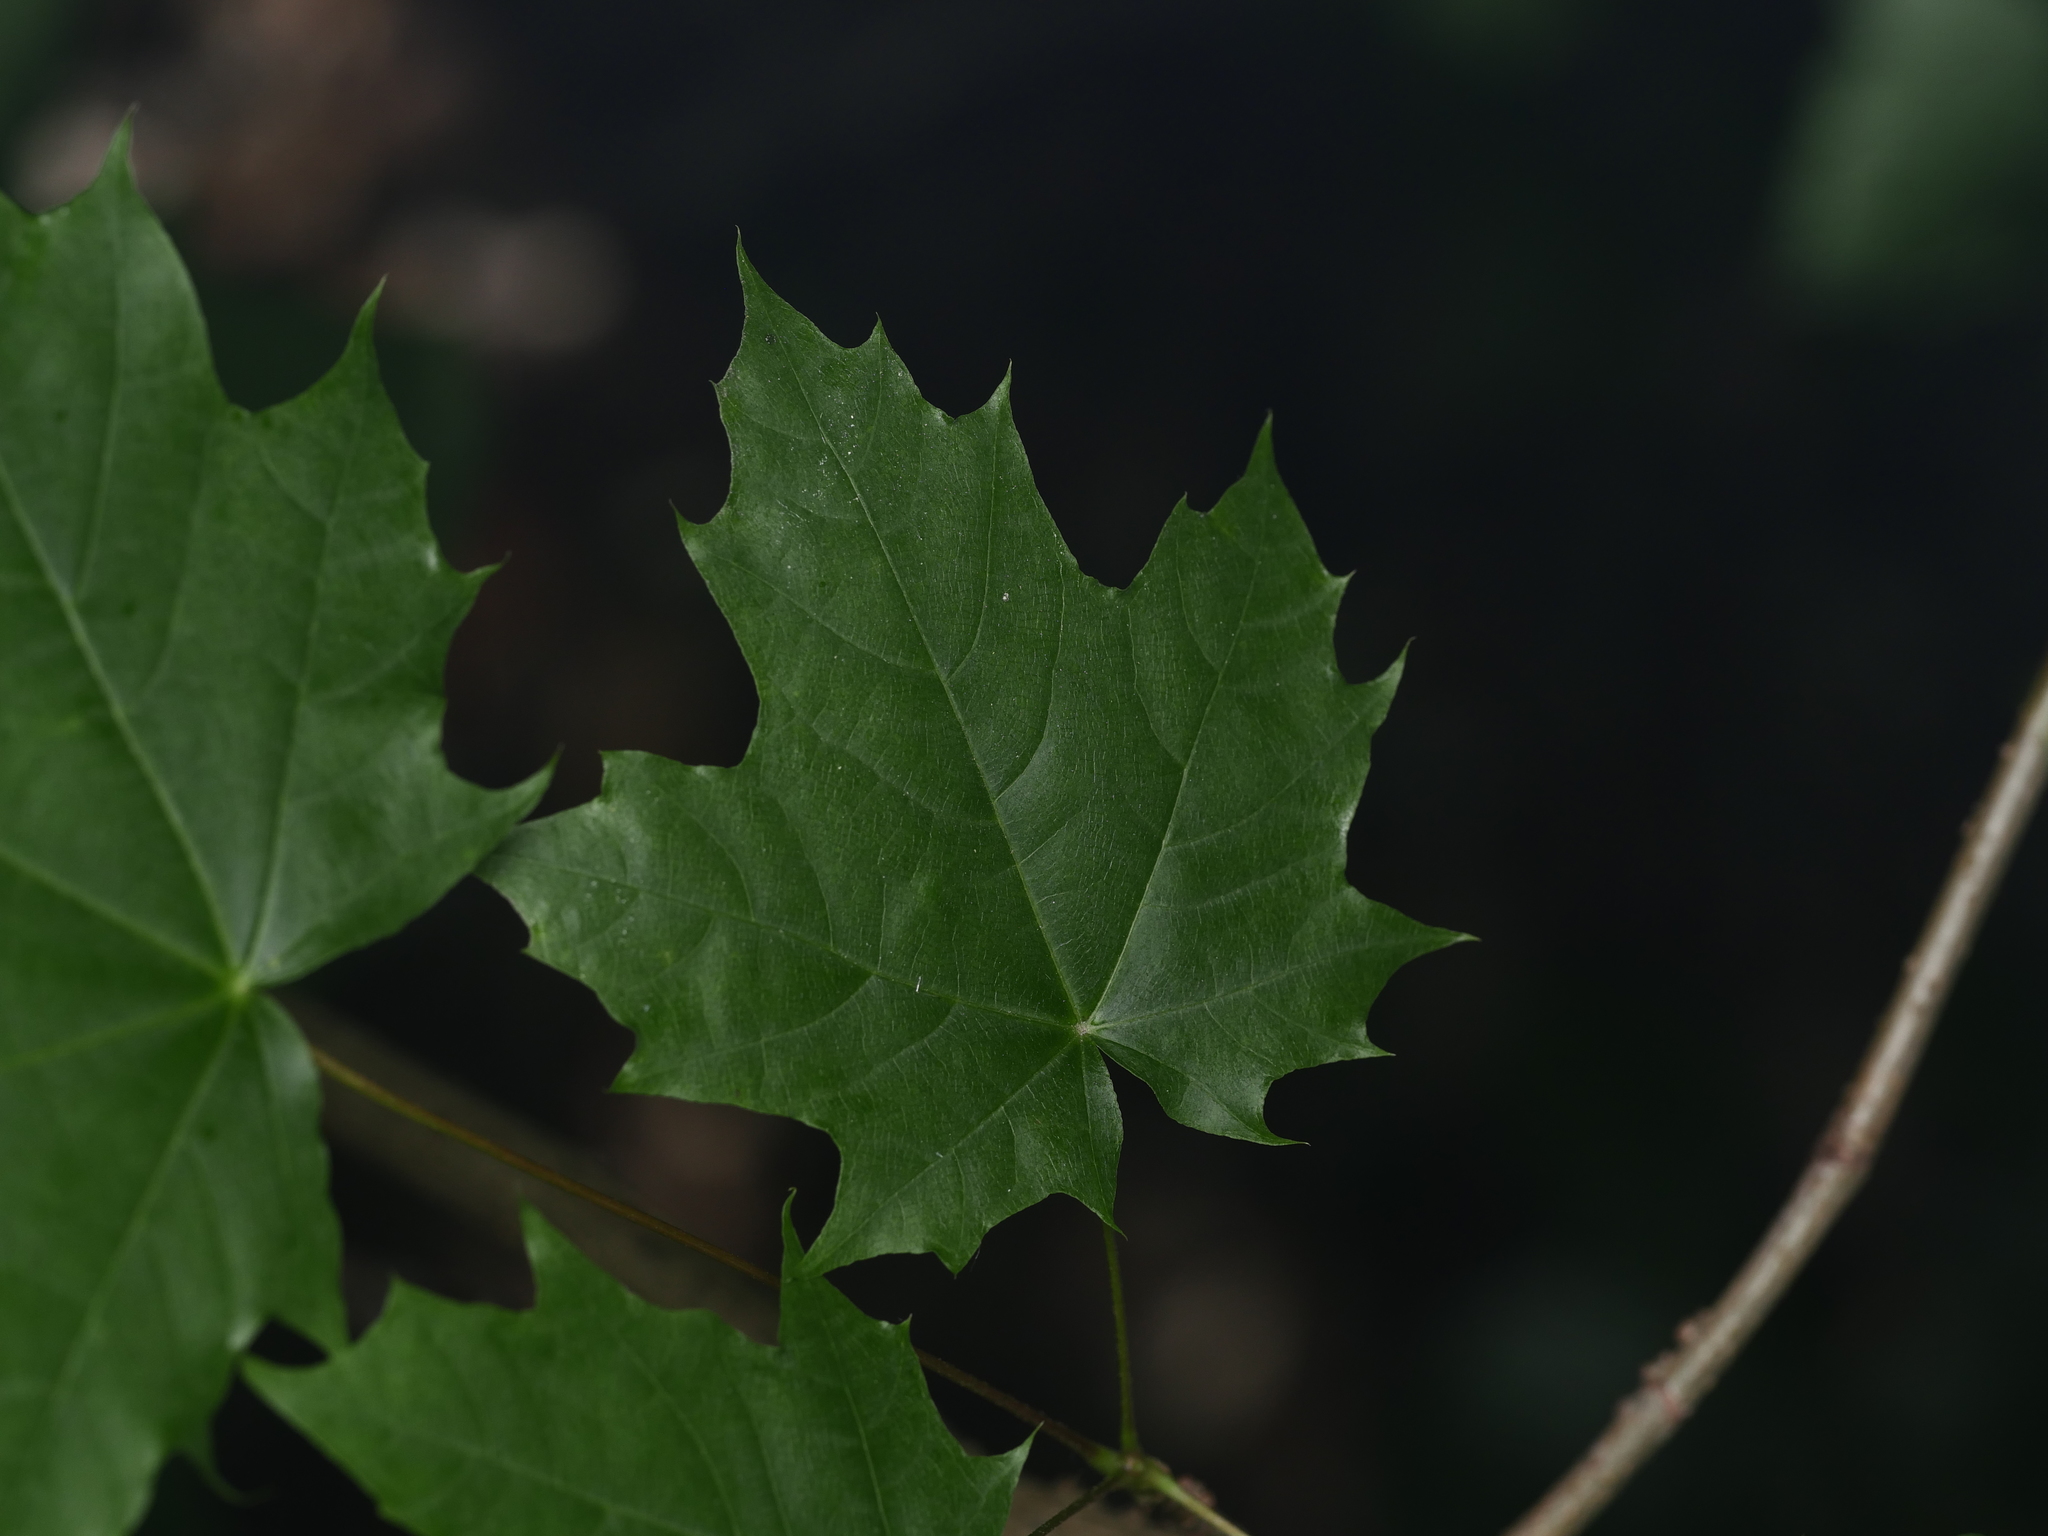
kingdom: Plantae
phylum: Tracheophyta
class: Magnoliopsida
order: Sapindales
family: Sapindaceae
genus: Acer
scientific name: Acer platanoides
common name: Norway maple
